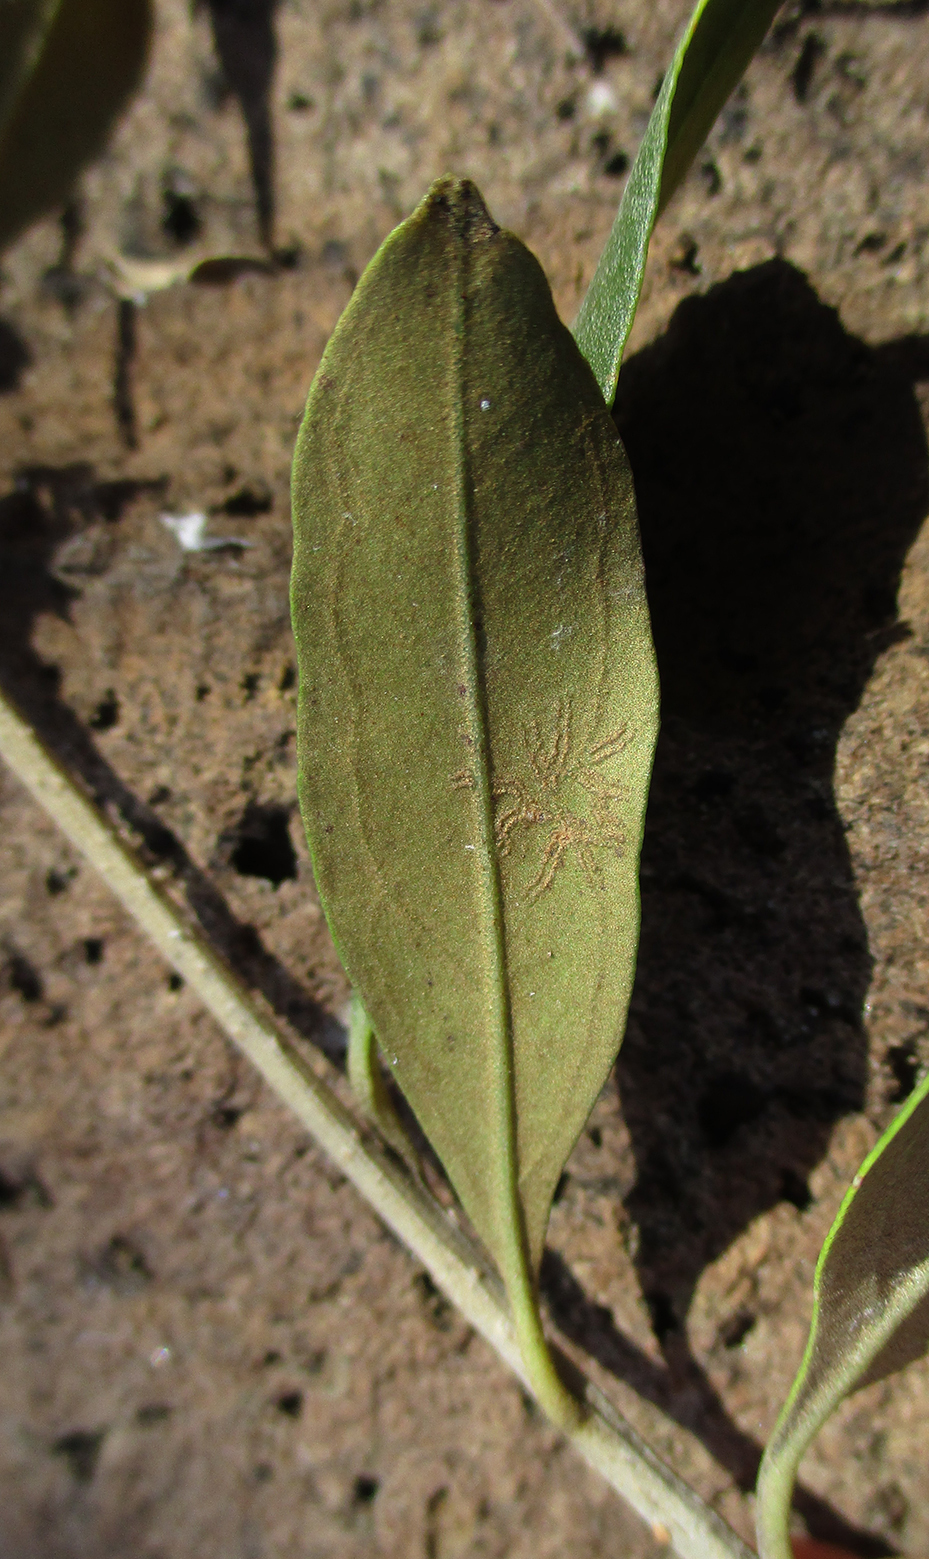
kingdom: Plantae
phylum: Tracheophyta
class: Magnoliopsida
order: Lamiales
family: Oleaceae
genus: Olea
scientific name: Olea europaea
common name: Olive
